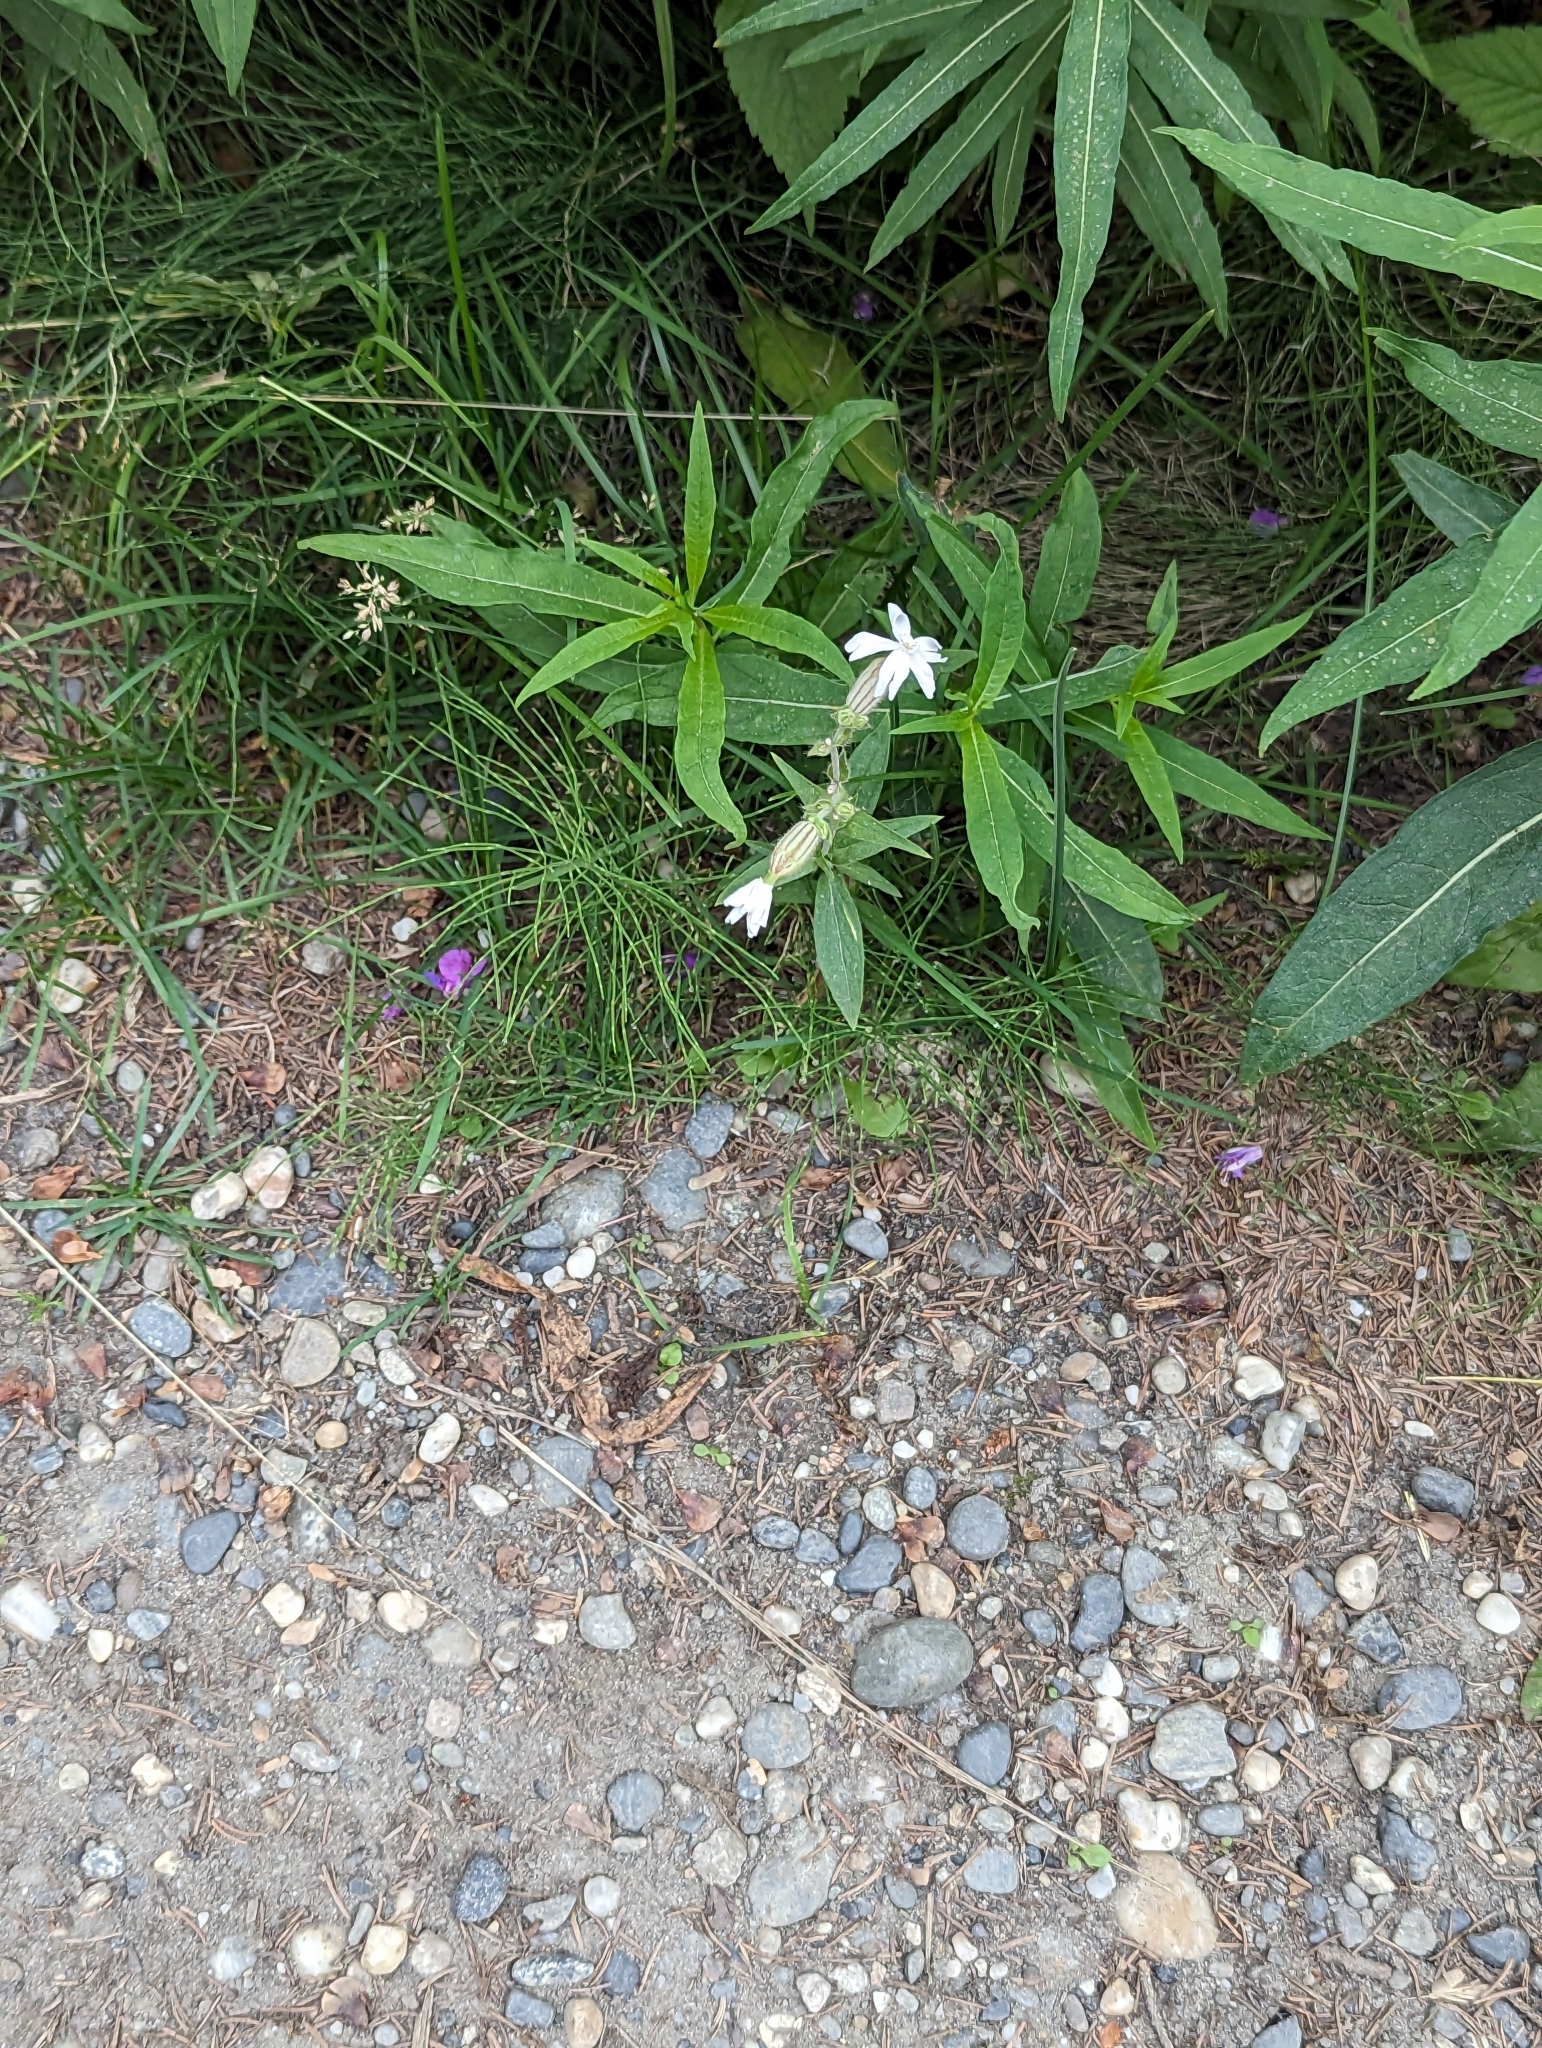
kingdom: Plantae
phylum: Tracheophyta
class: Magnoliopsida
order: Caryophyllales
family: Caryophyllaceae
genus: Silene
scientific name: Silene latifolia
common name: White campion
